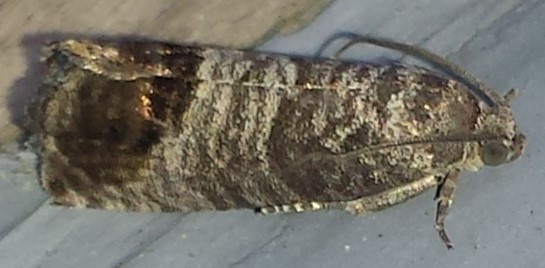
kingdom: Animalia
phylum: Arthropoda
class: Insecta
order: Lepidoptera
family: Tortricidae
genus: Cydia
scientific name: Cydia pomonella
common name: Codling moth
